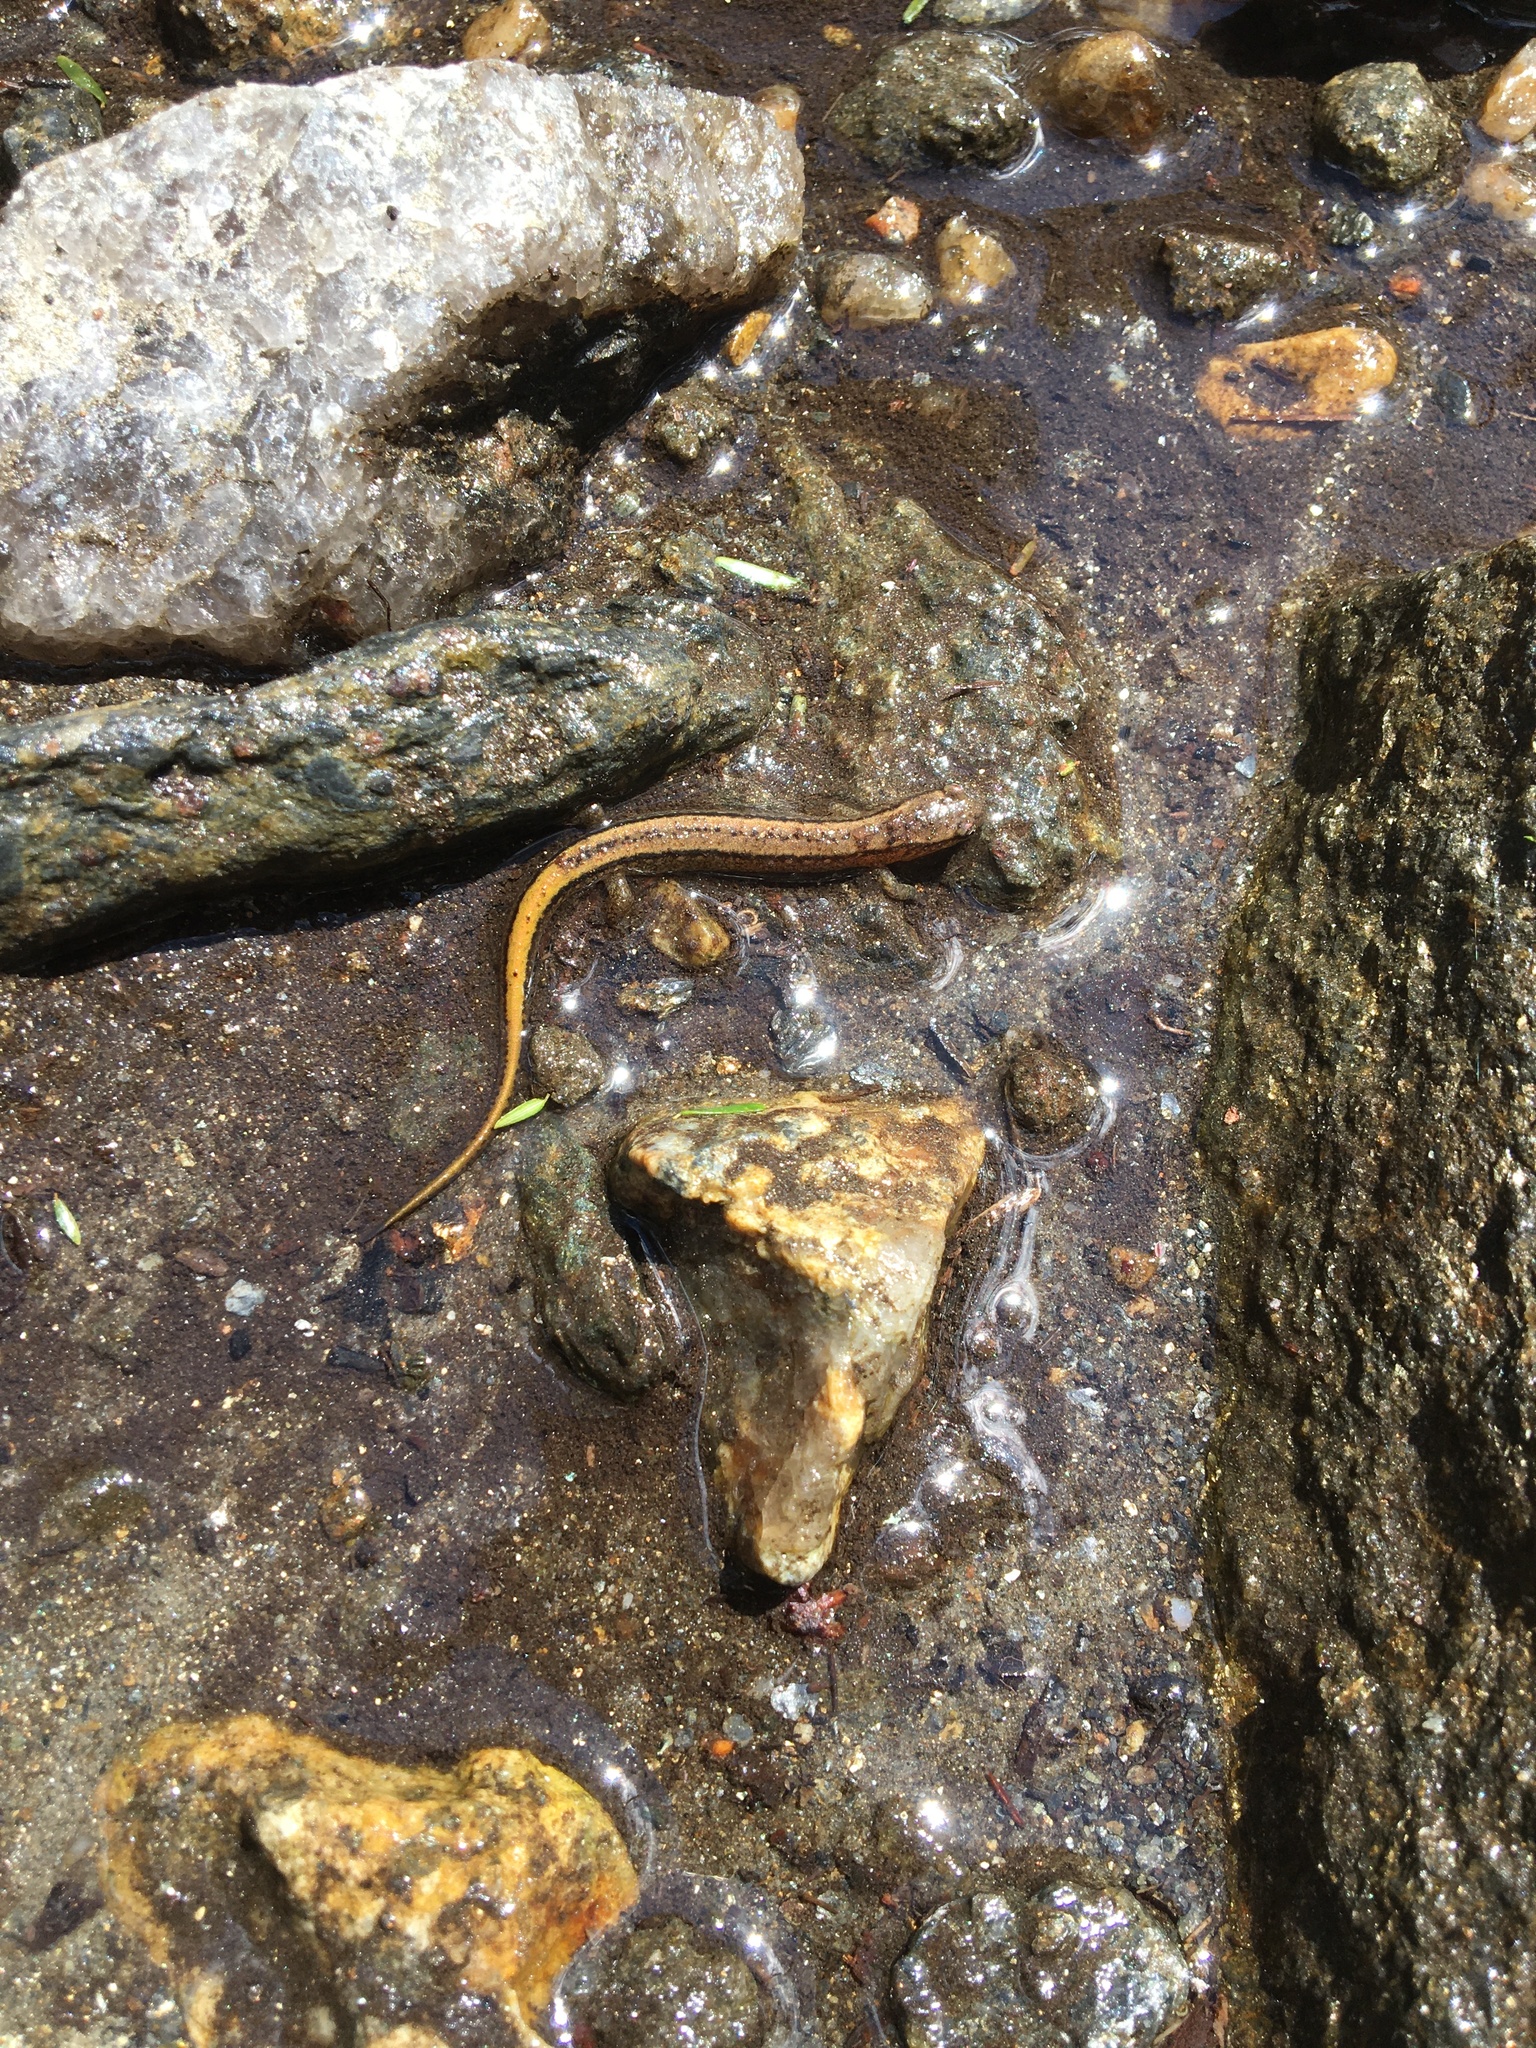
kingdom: Animalia
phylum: Chordata
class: Amphibia
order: Caudata
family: Plethodontidae
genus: Eurycea
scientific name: Eurycea bislineata
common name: Northern two-lined salamander
